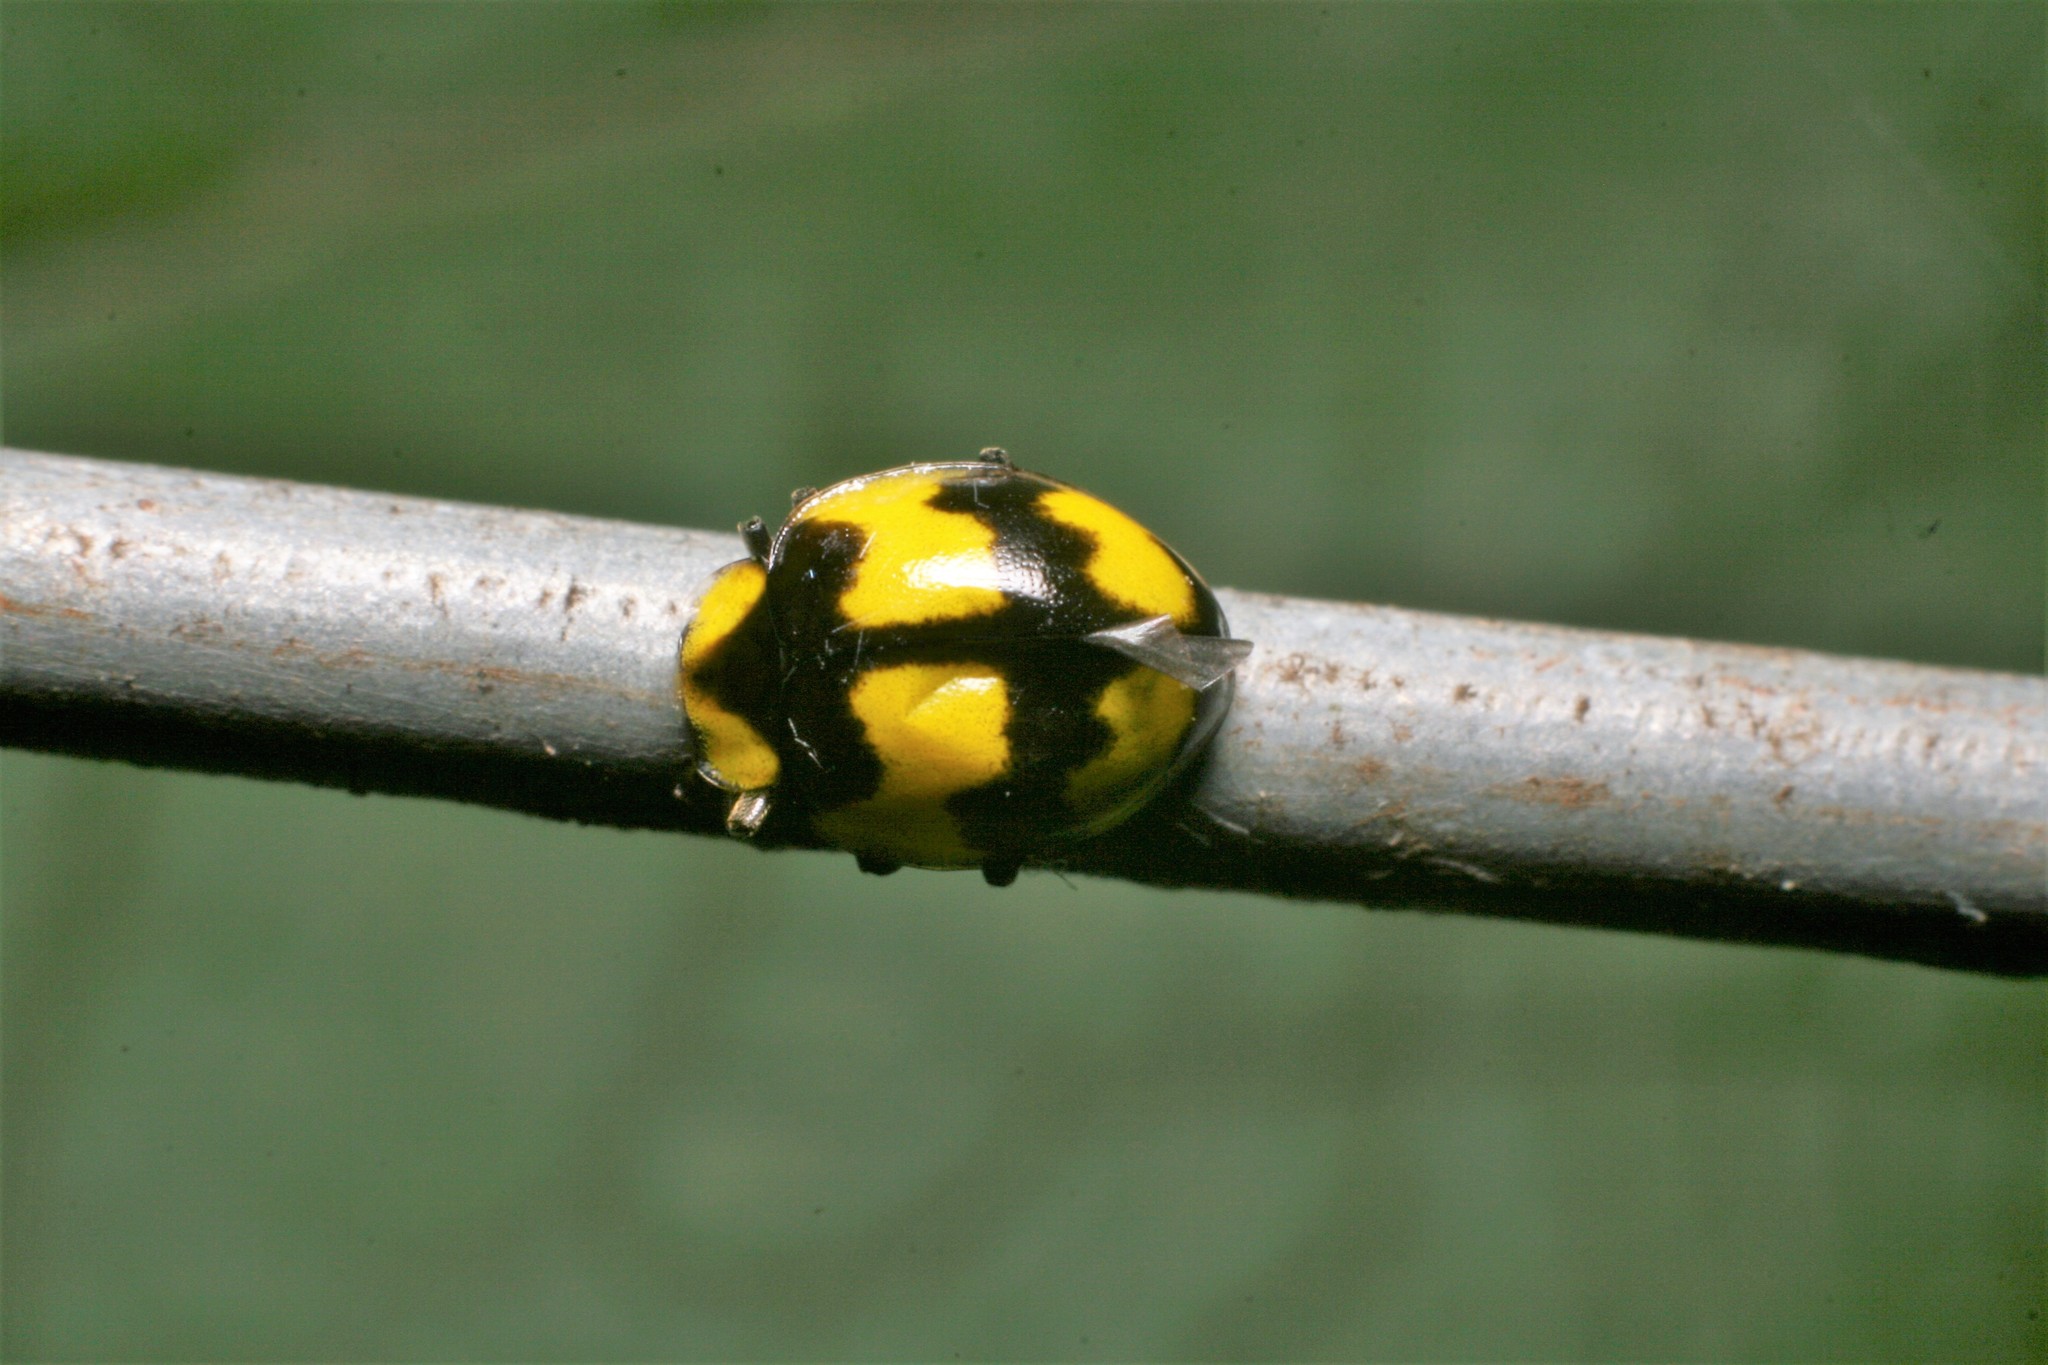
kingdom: Animalia
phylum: Arthropoda
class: Insecta
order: Coleoptera
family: Coccinellidae
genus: Illeis
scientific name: Illeis galbula
